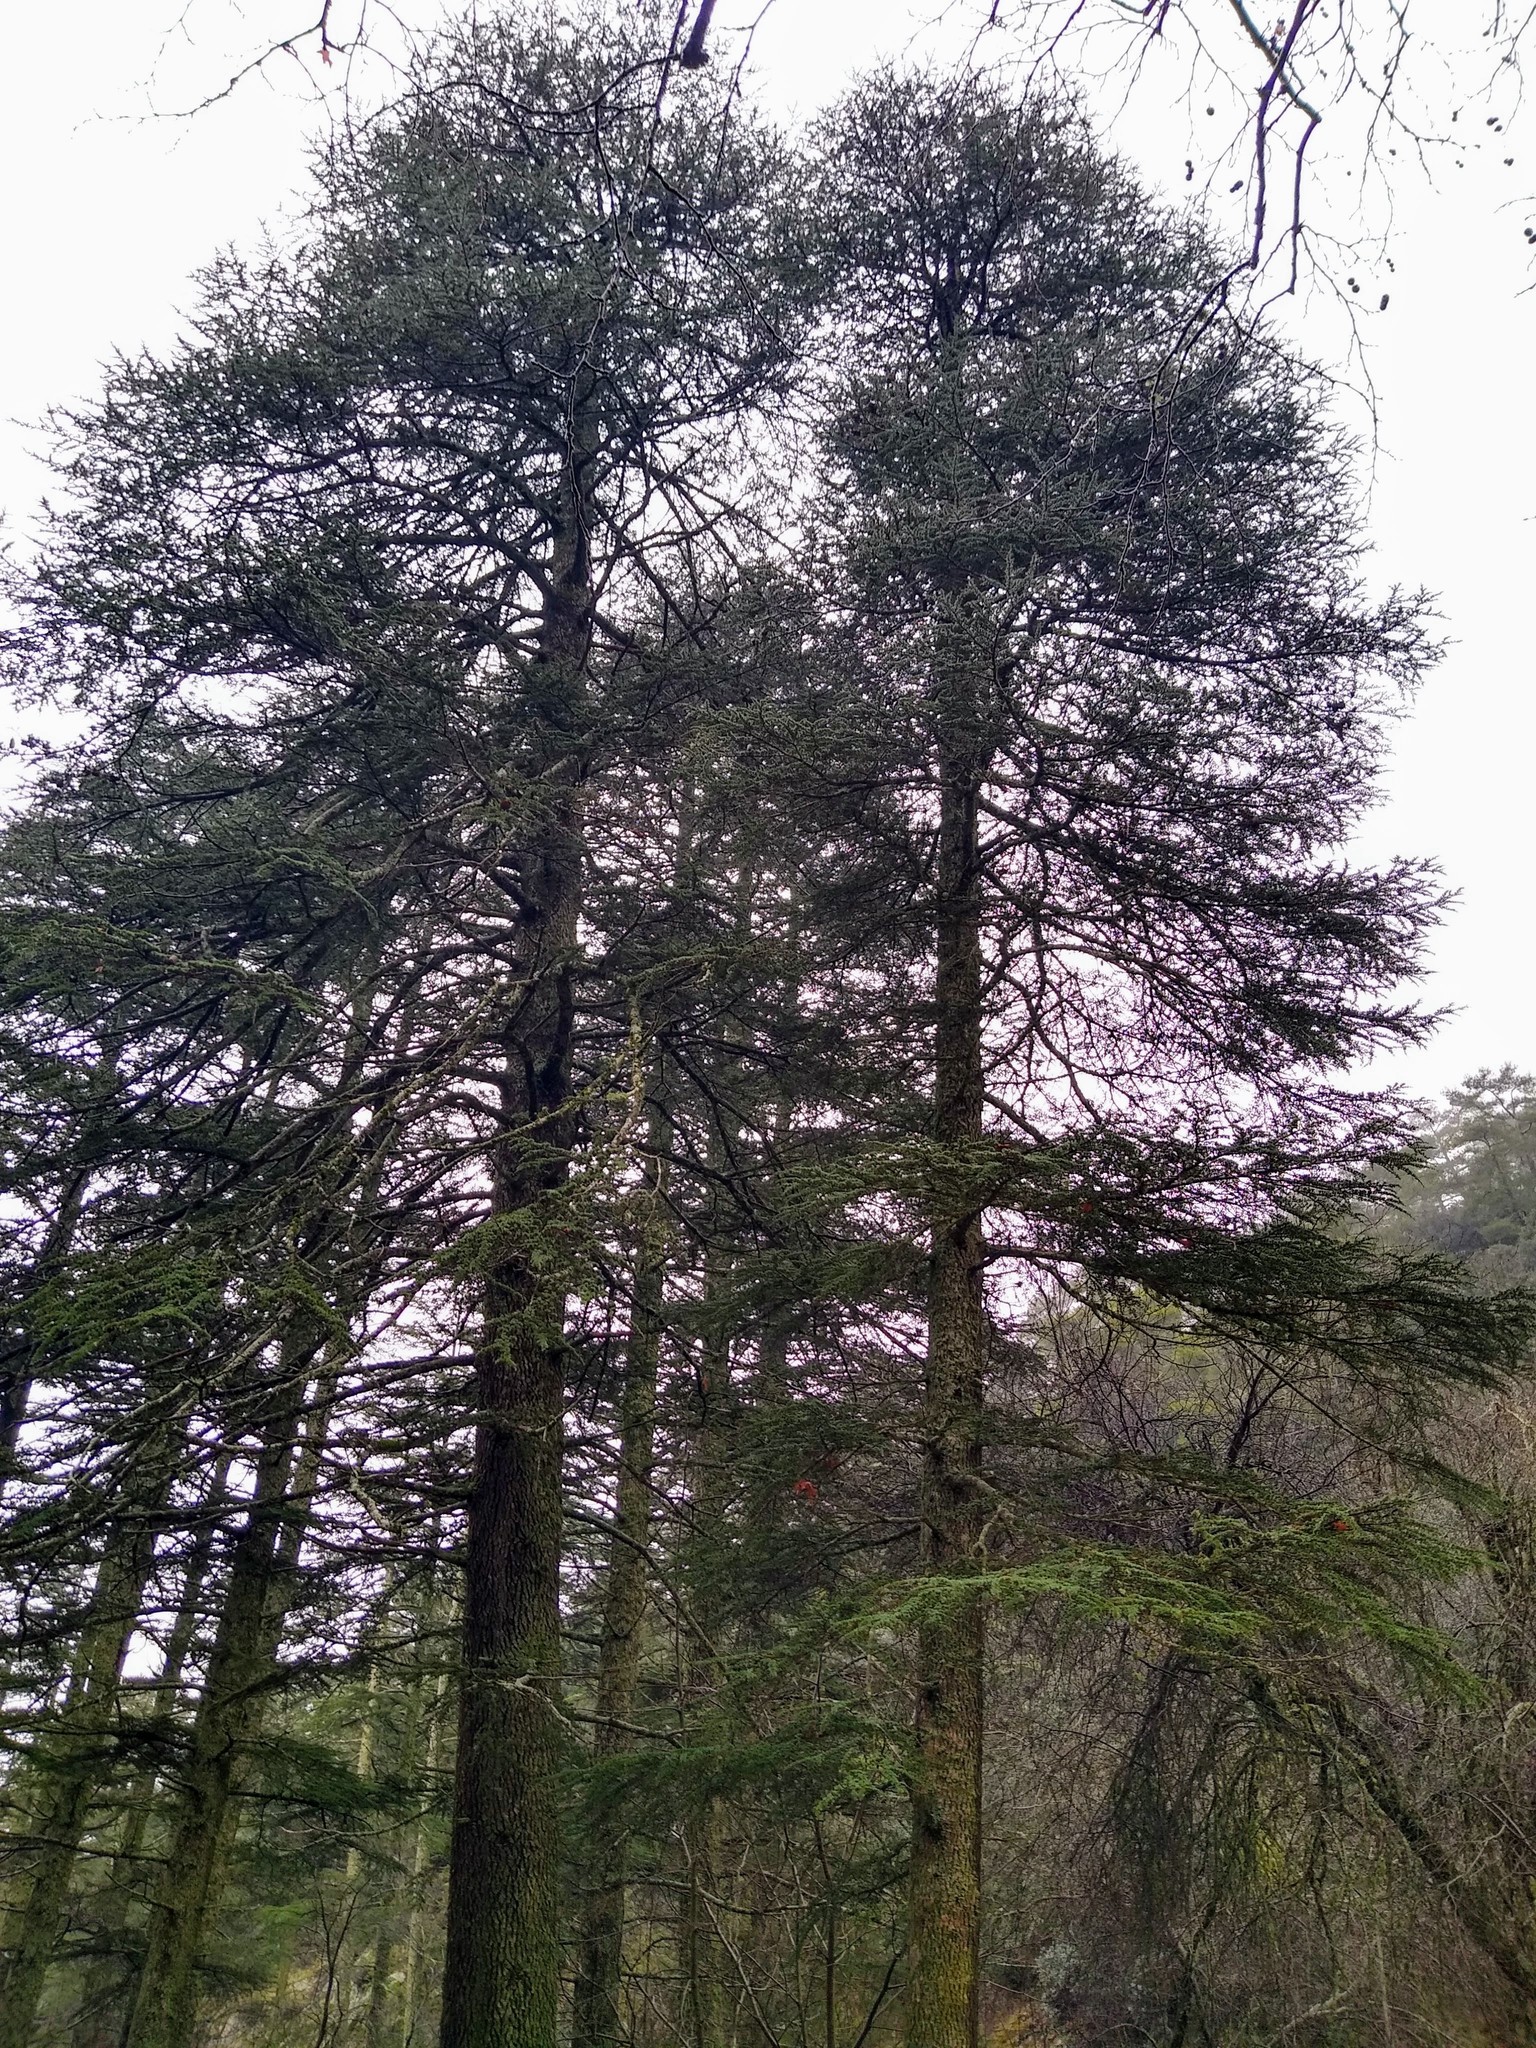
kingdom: Plantae
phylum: Tracheophyta
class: Pinopsida
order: Pinales
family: Pinaceae
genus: Cedrus
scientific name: Cedrus brevifolia
